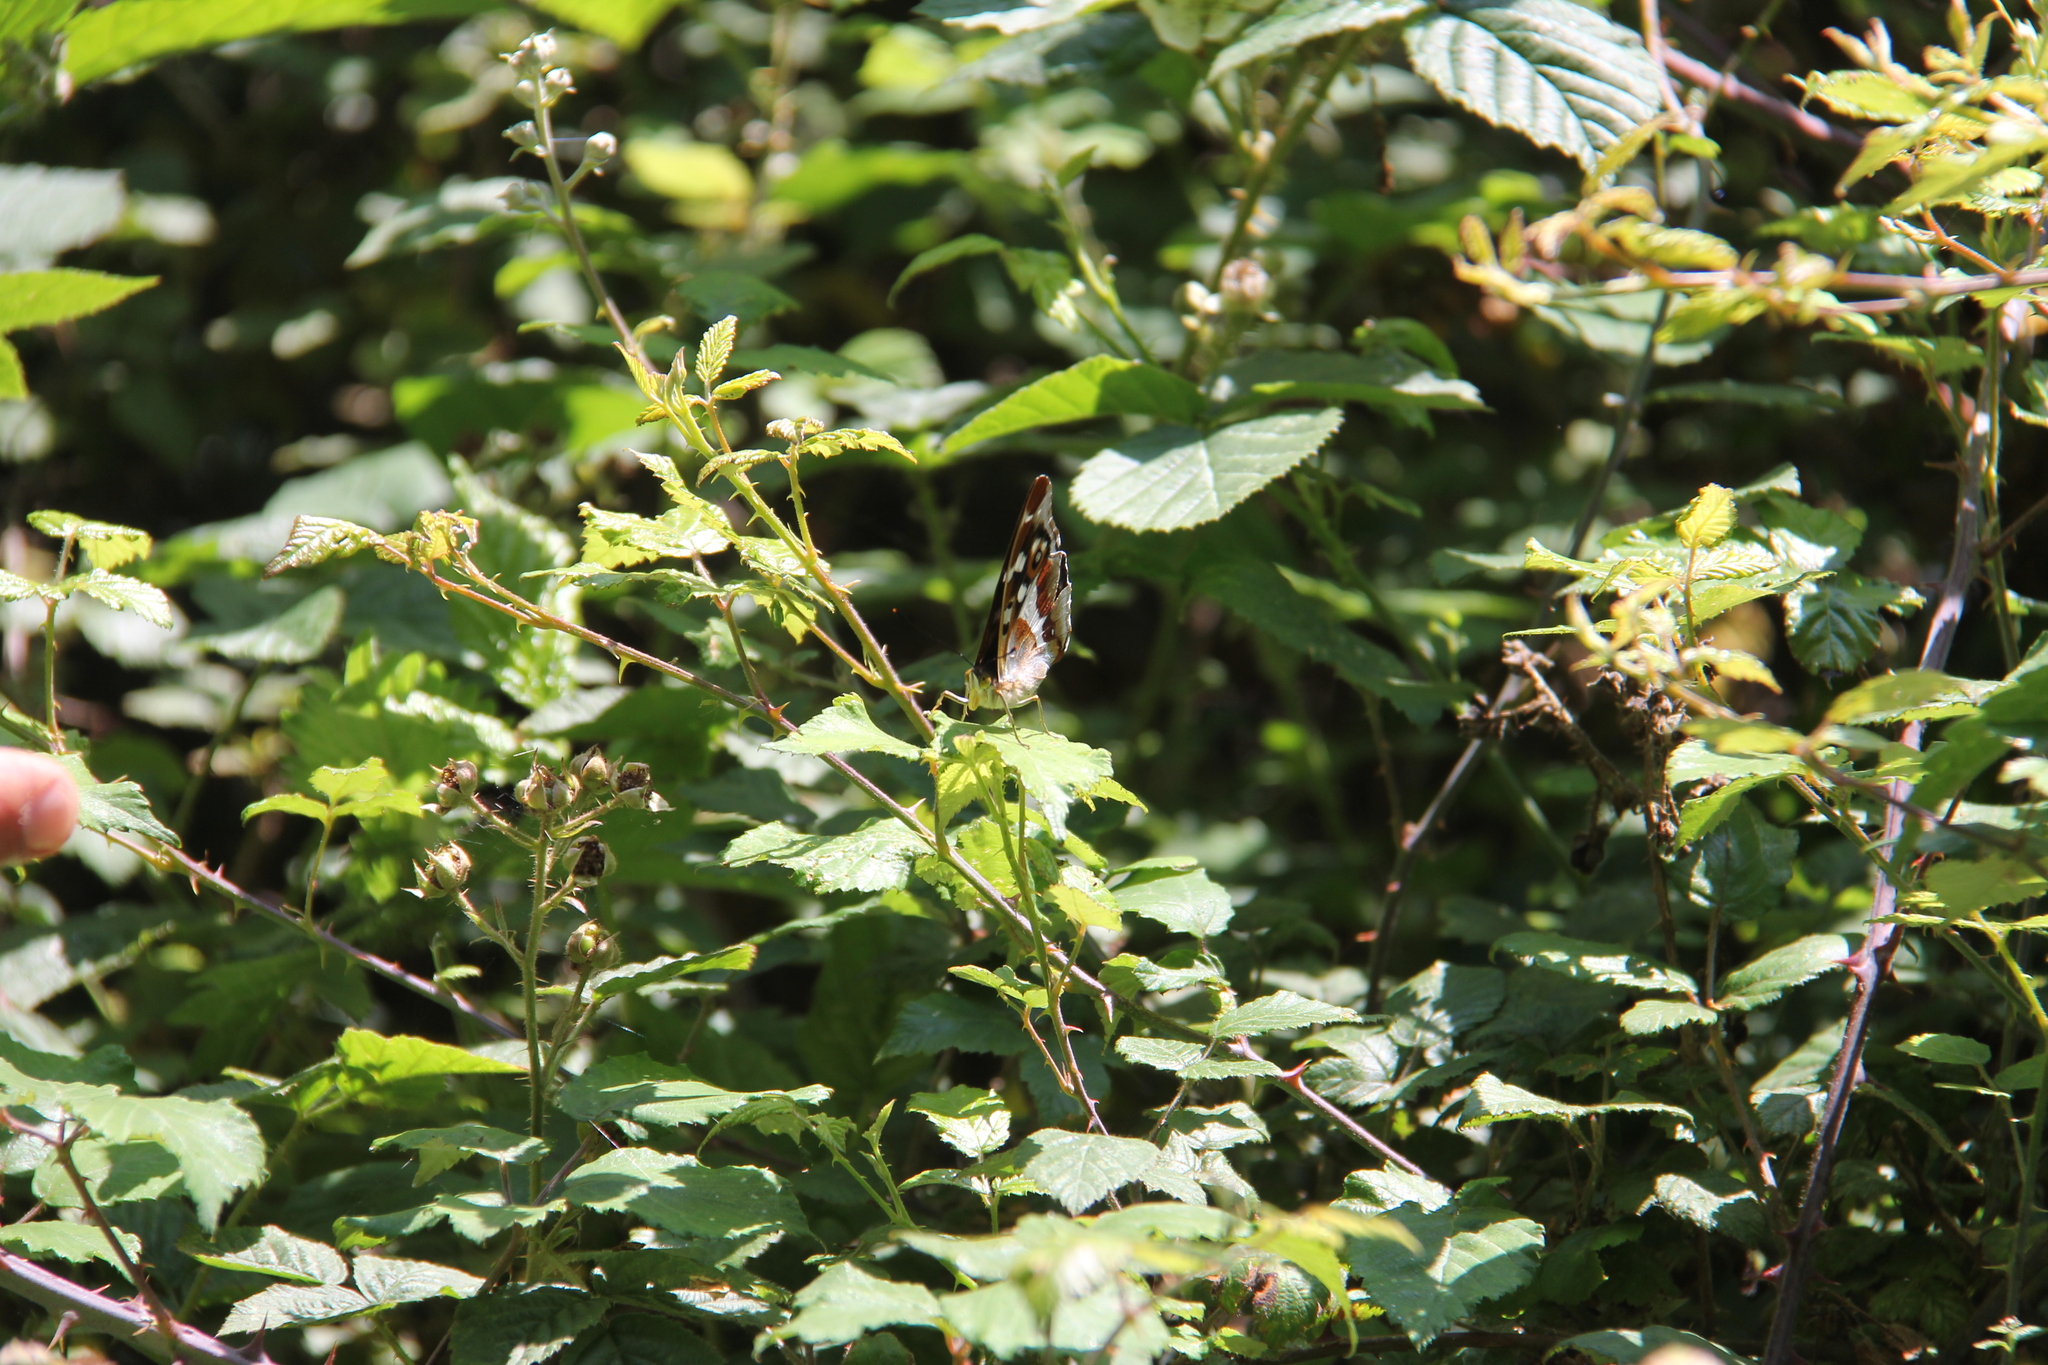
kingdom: Animalia
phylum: Arthropoda
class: Insecta
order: Lepidoptera
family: Nymphalidae
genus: Apatura
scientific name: Apatura iris
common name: Purple emperor
